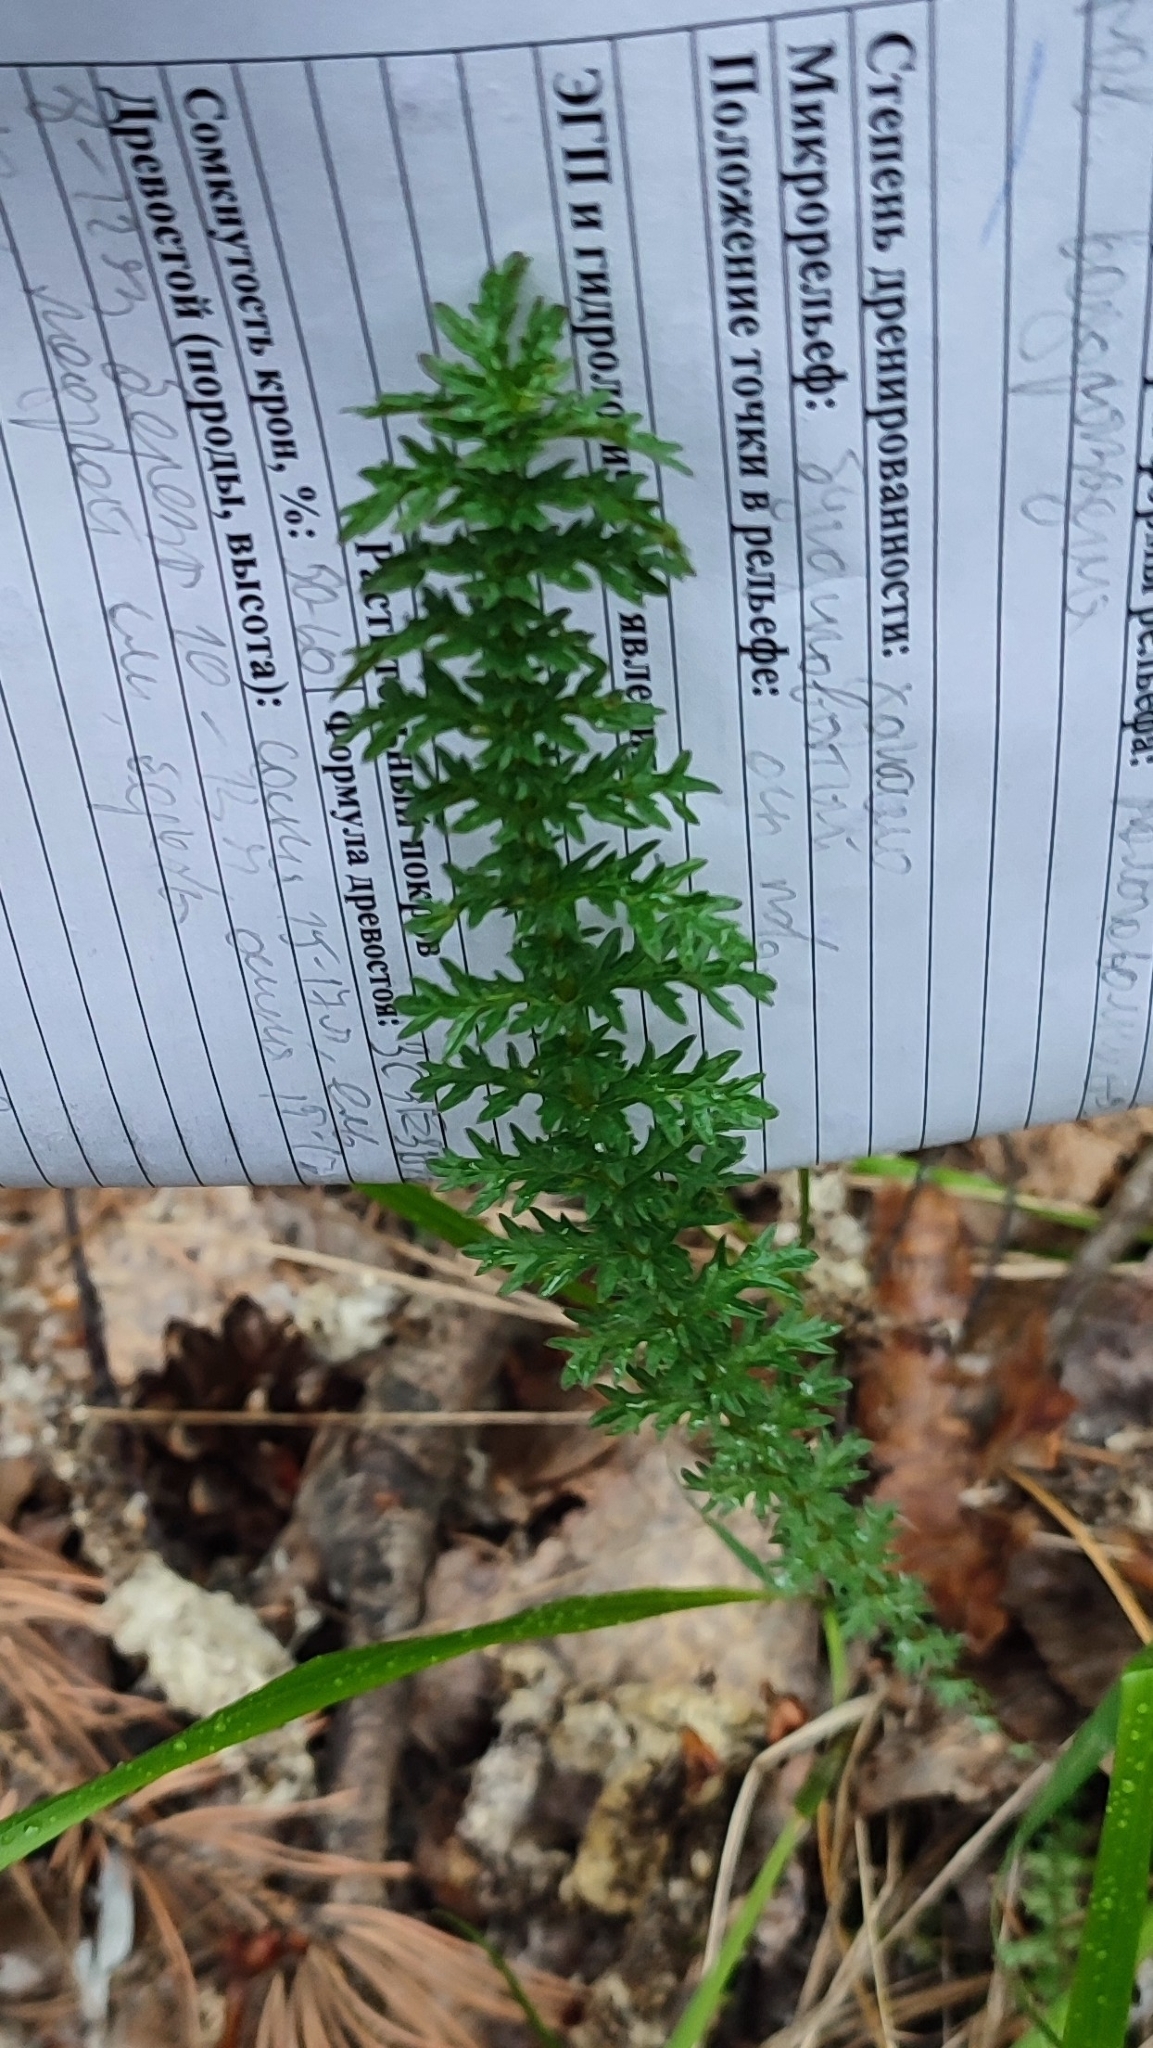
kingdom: Plantae
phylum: Tracheophyta
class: Magnoliopsida
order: Rosales
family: Rosaceae
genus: Filipendula
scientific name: Filipendula vulgaris
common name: Dropwort
